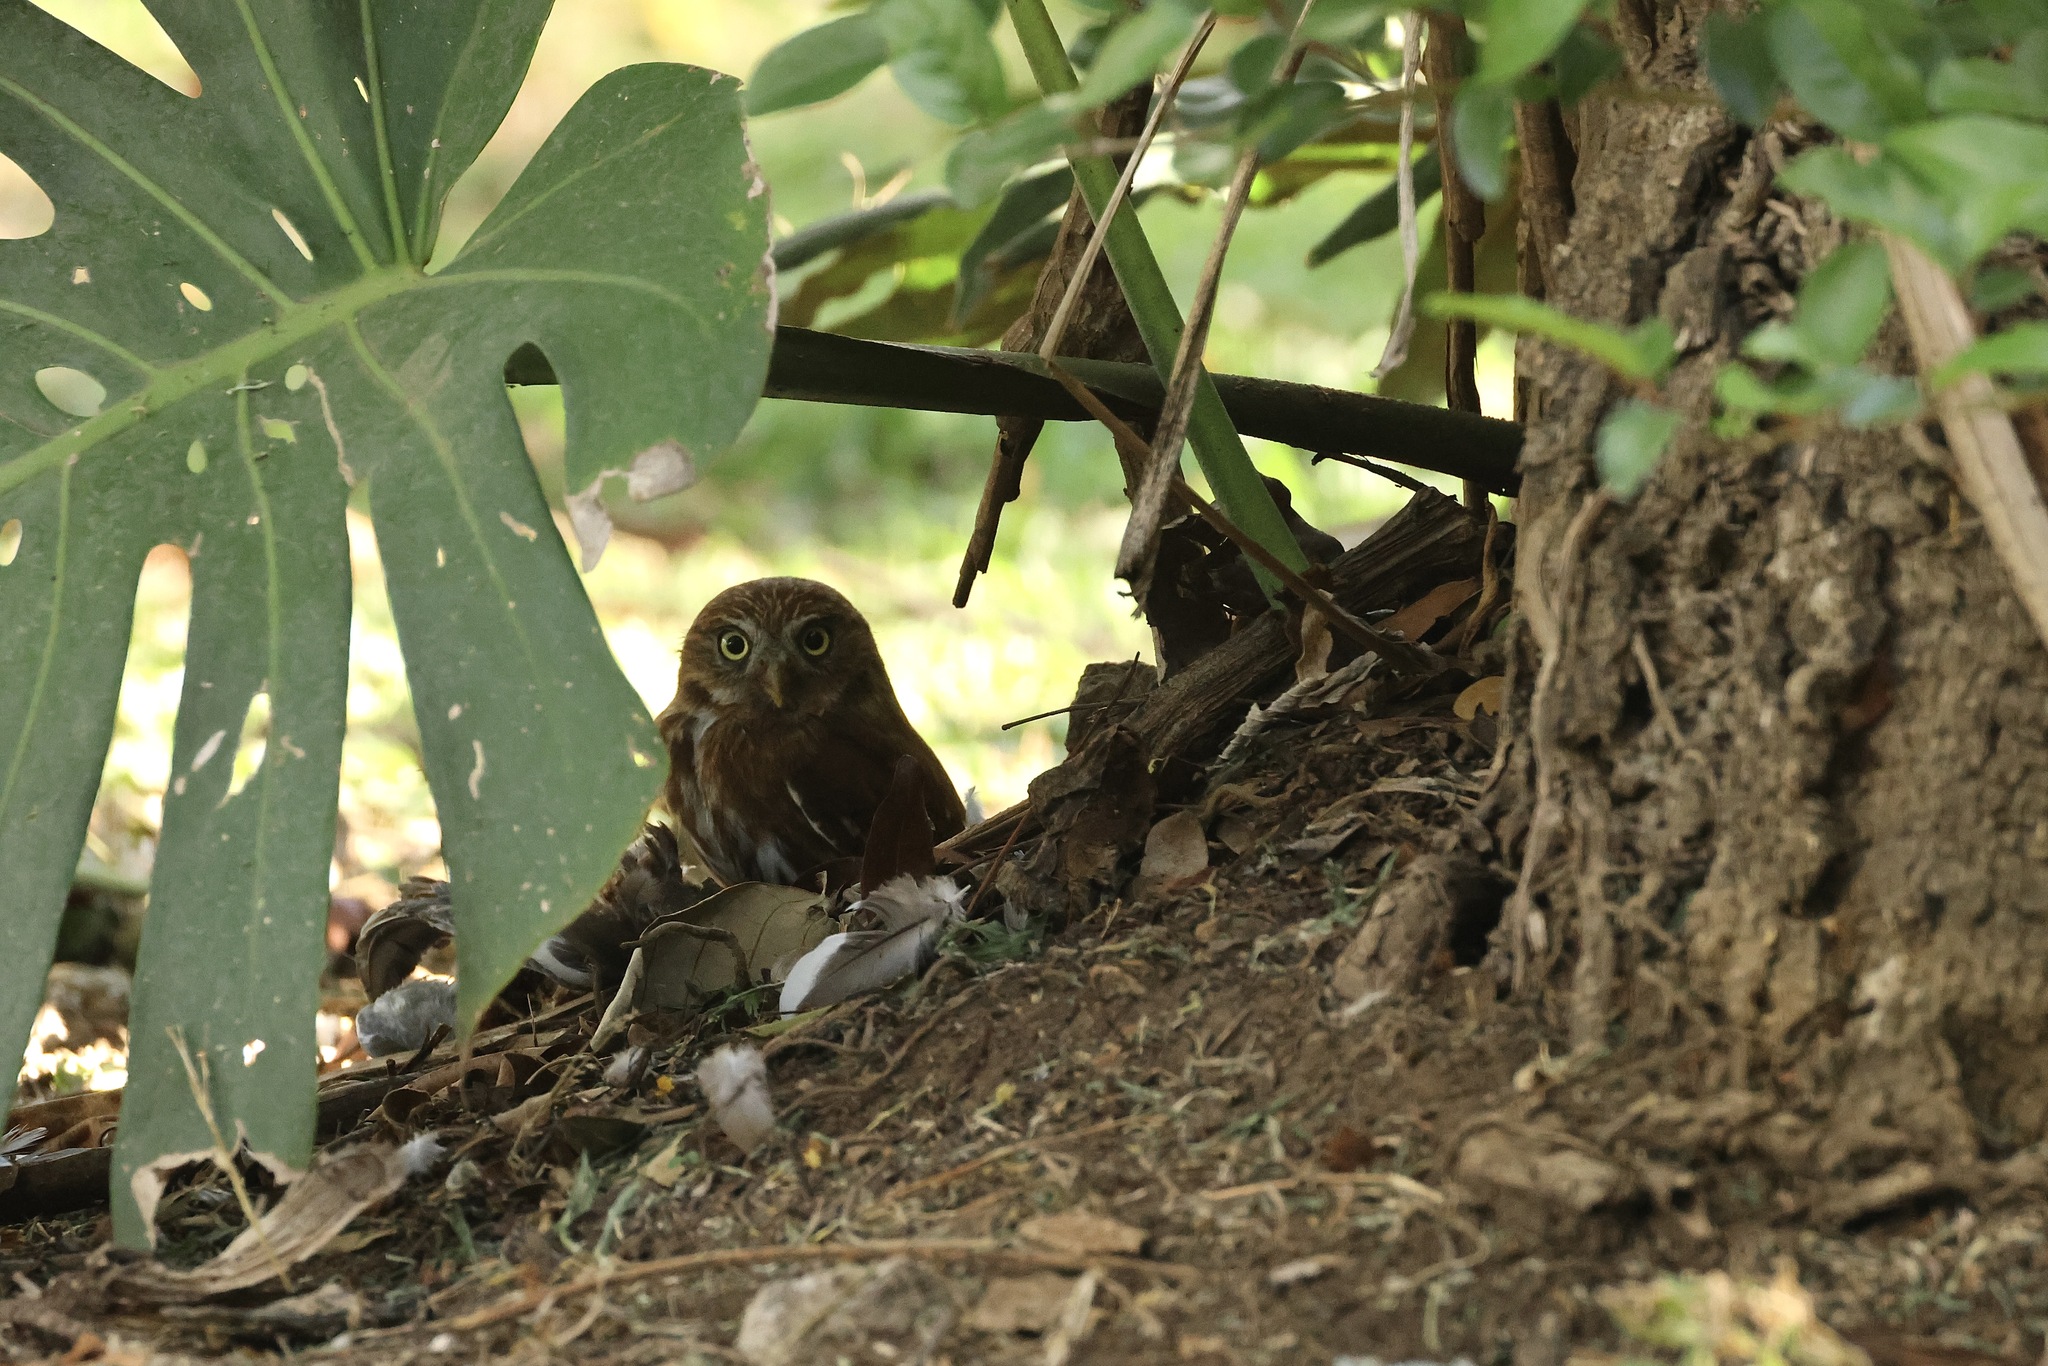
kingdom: Animalia
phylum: Chordata
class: Aves
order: Strigiformes
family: Strigidae
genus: Glaucidium
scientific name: Glaucidium brasilianum
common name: Ferruginous pygmy-owl
